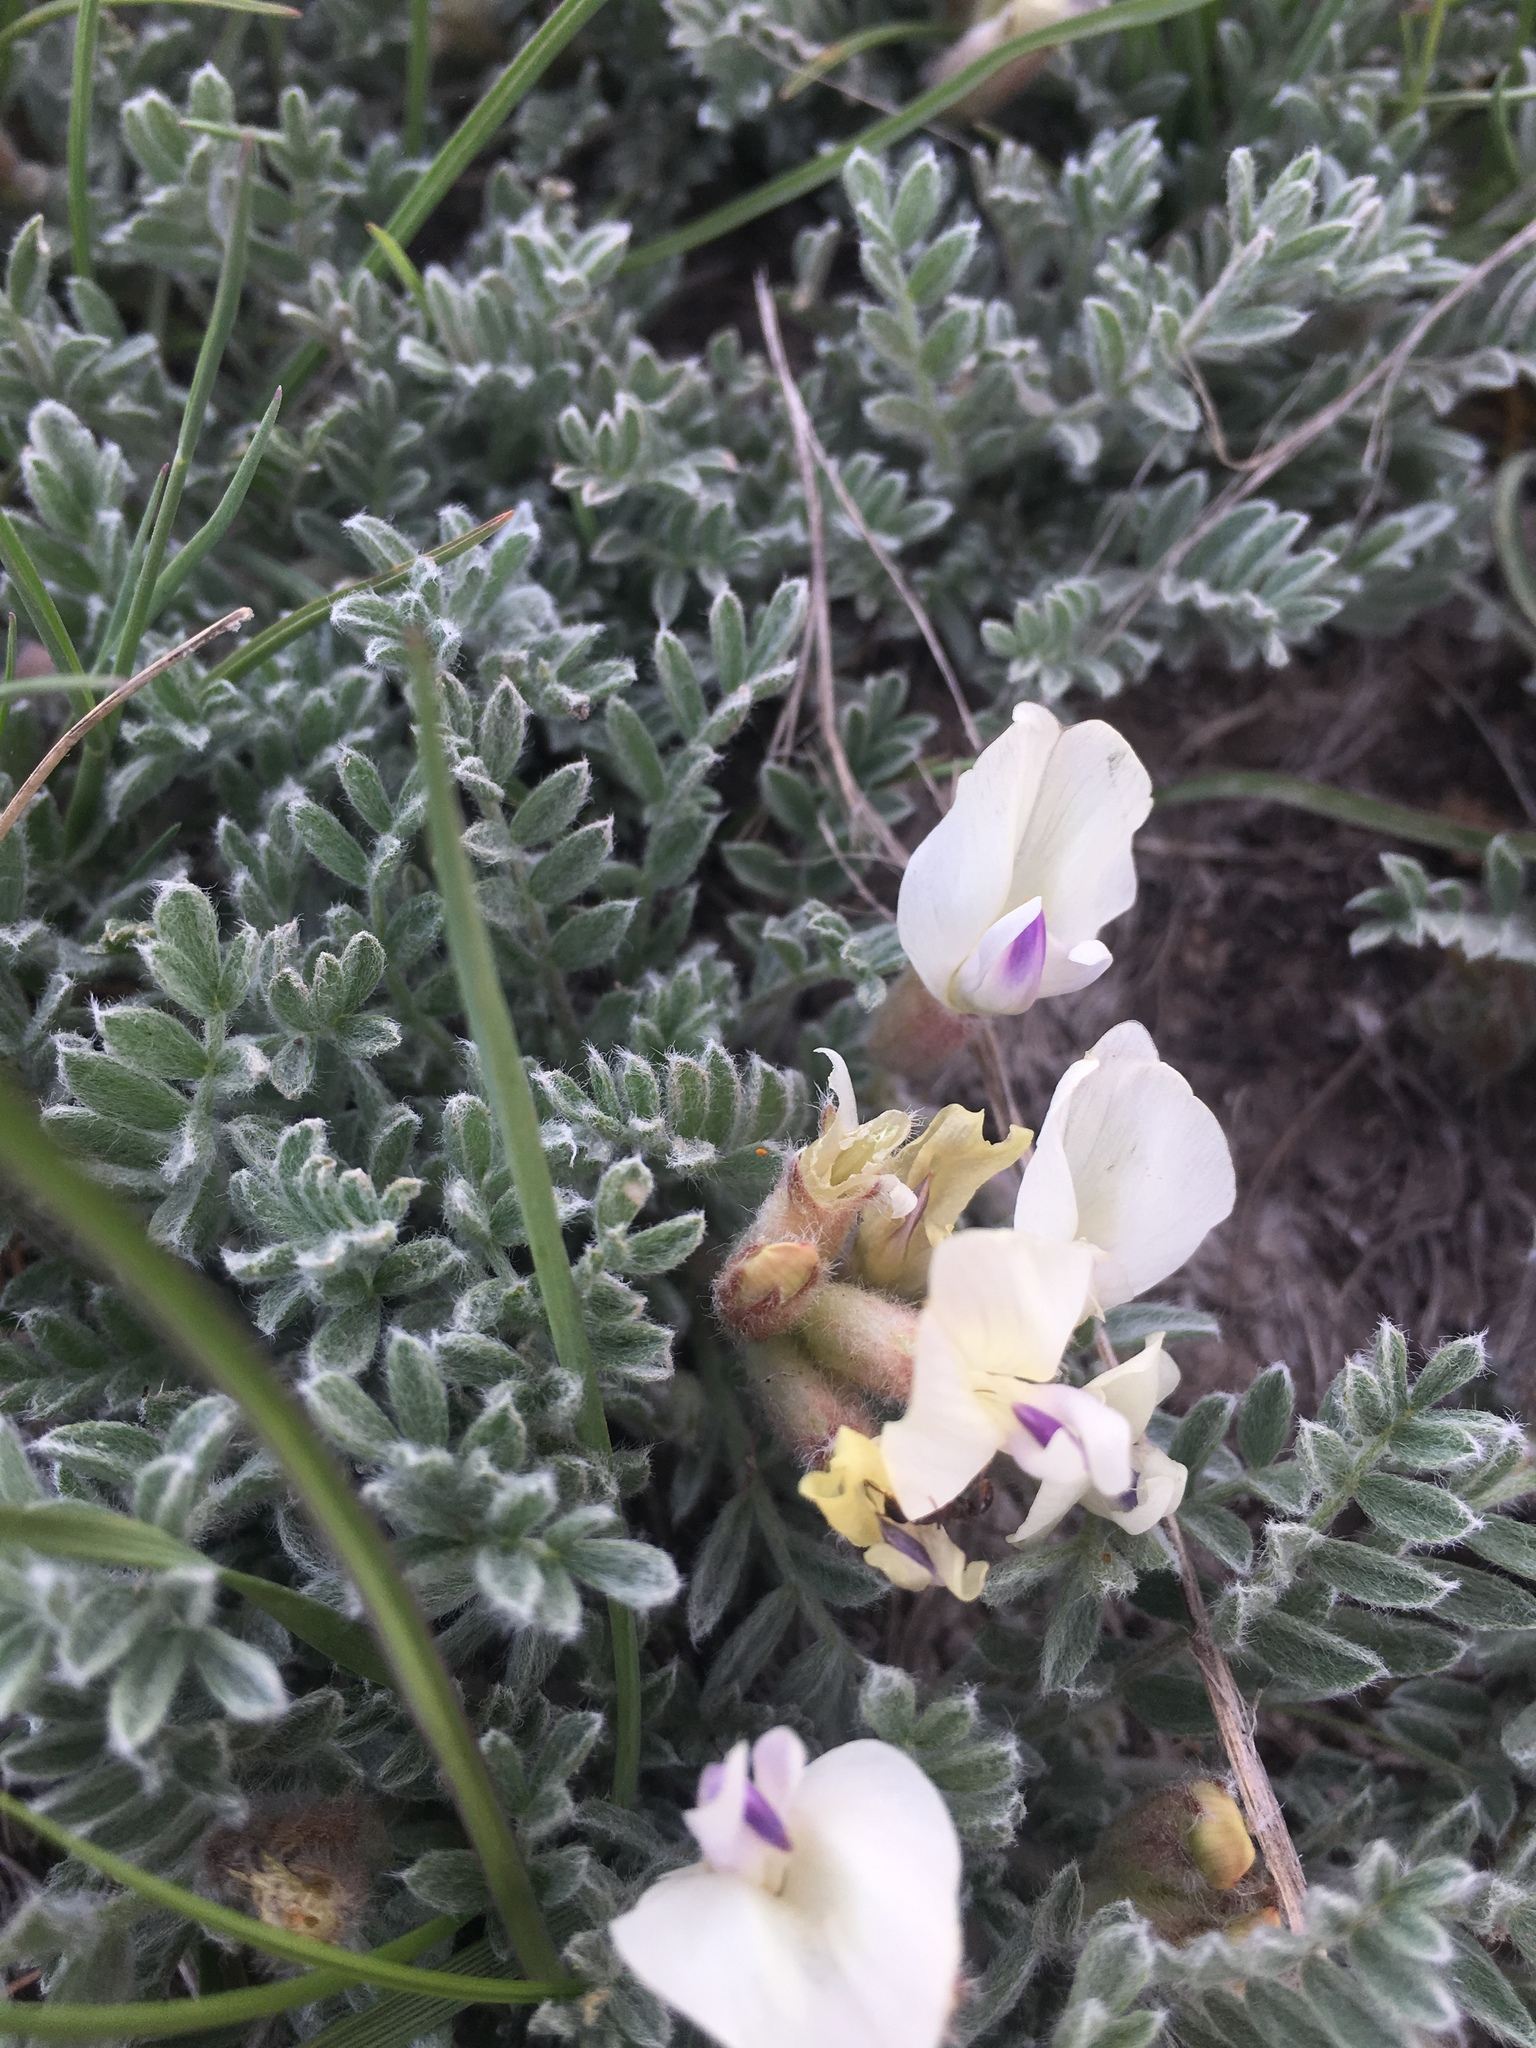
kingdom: Plantae
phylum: Tracheophyta
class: Magnoliopsida
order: Fabales
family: Fabaceae
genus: Astragalus
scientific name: Astragalus purshii
